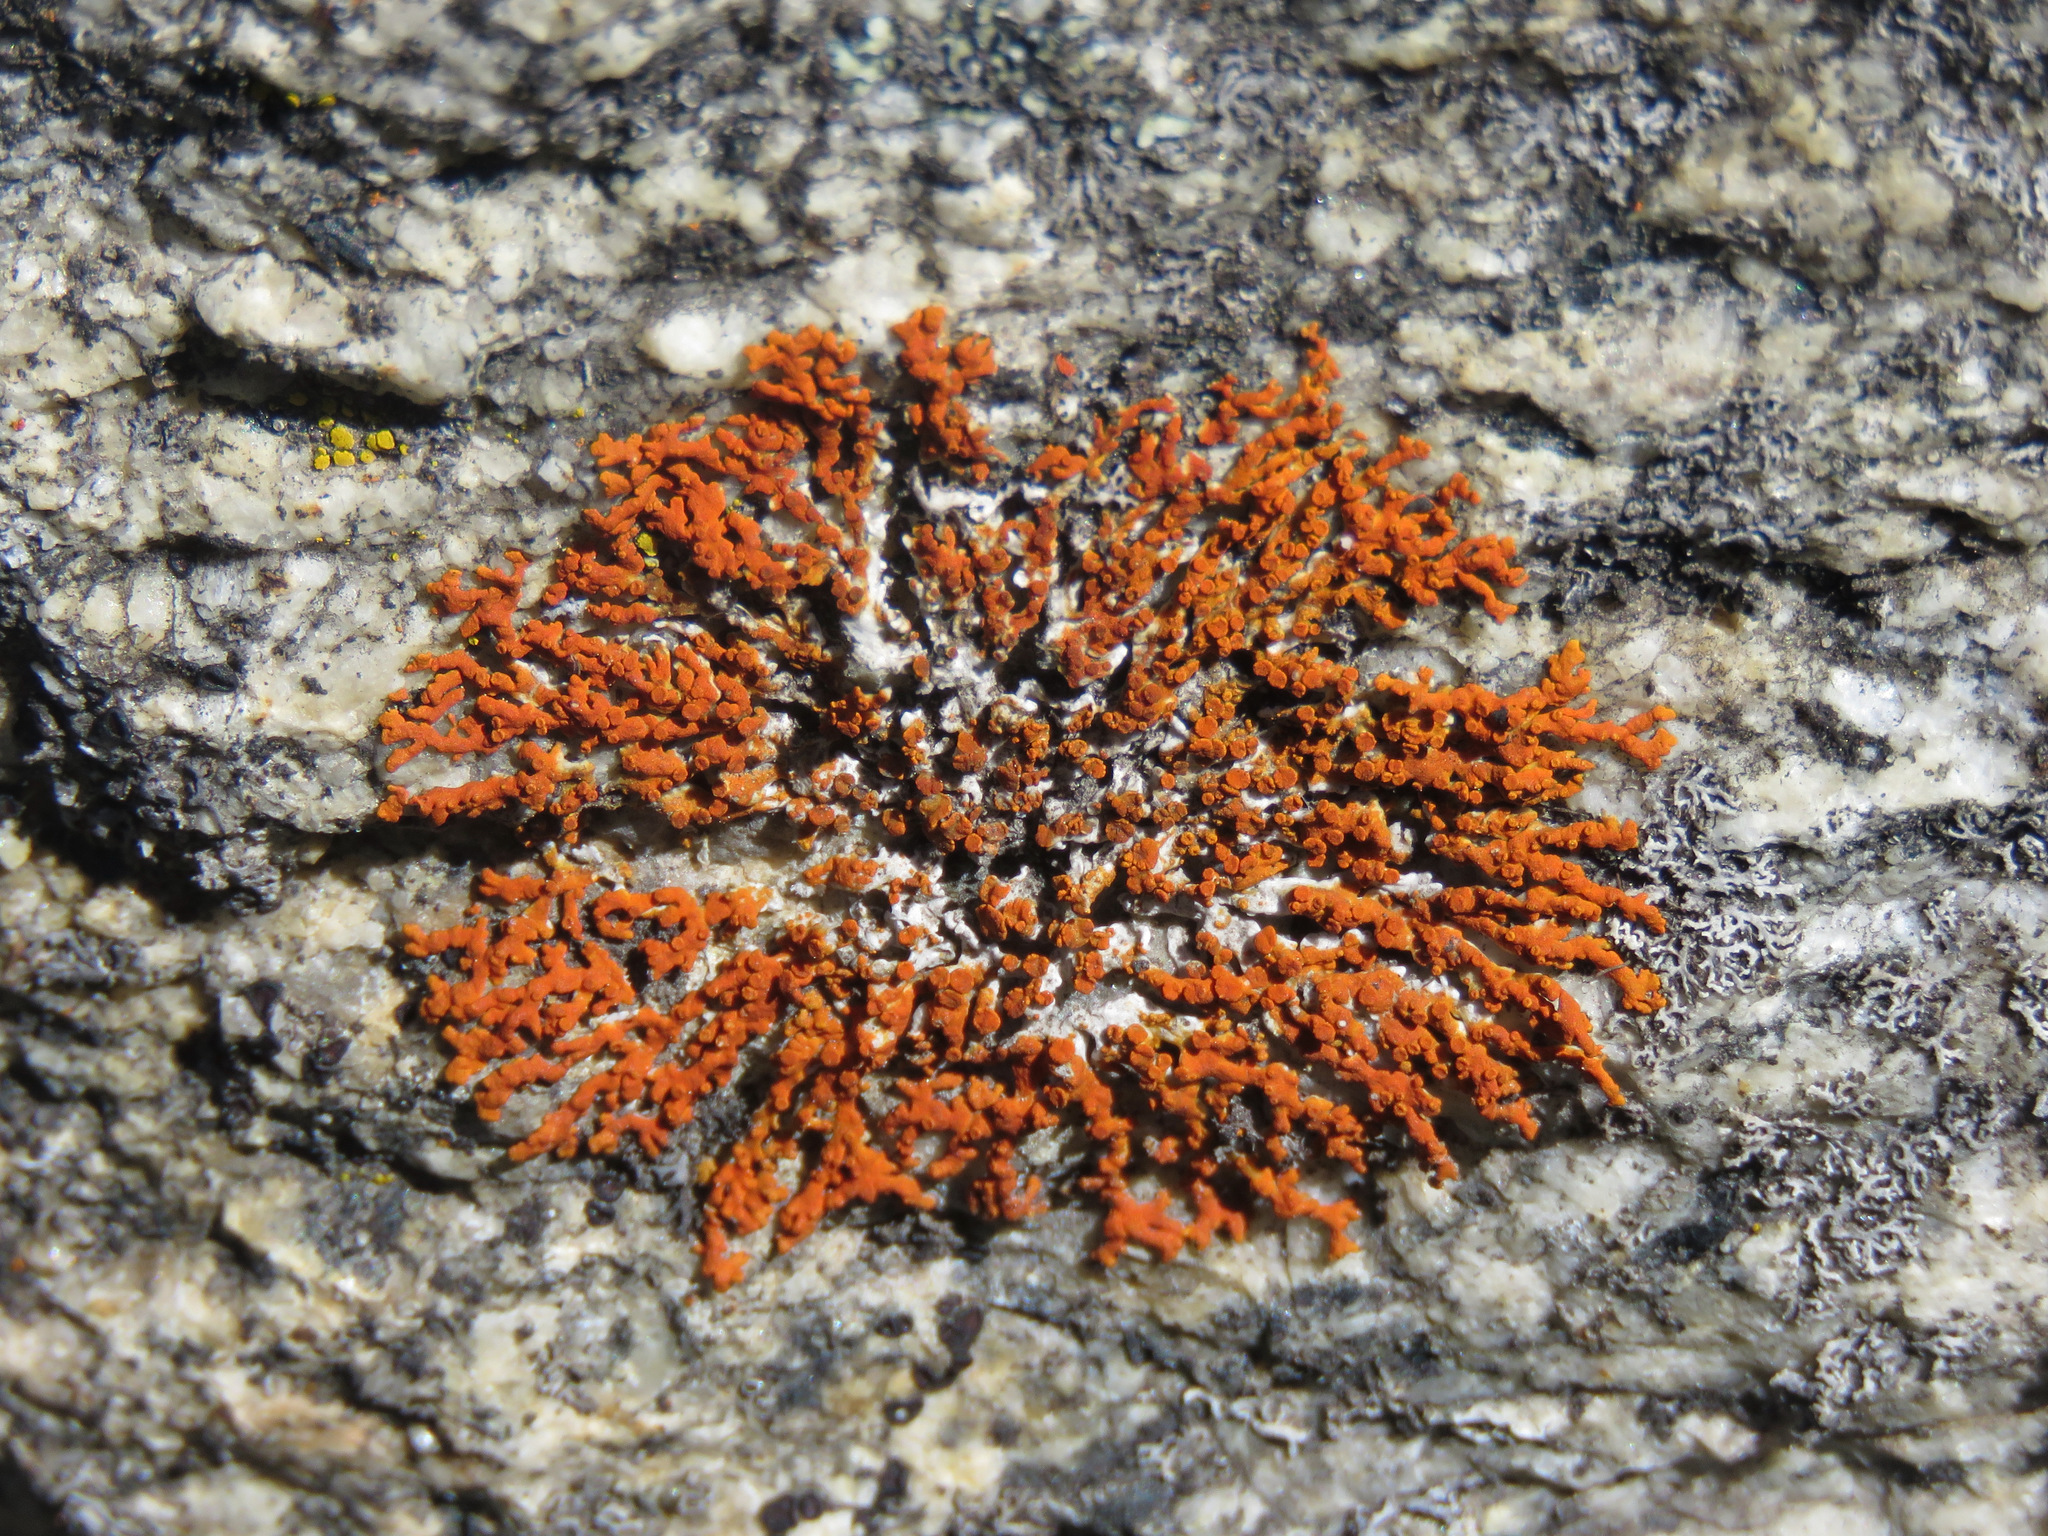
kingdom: Fungi
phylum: Ascomycota
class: Lecanoromycetes
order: Teloschistales
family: Teloschistaceae
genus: Xanthoria
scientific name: Xanthoria elegans
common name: Elegant sunburst lichen
